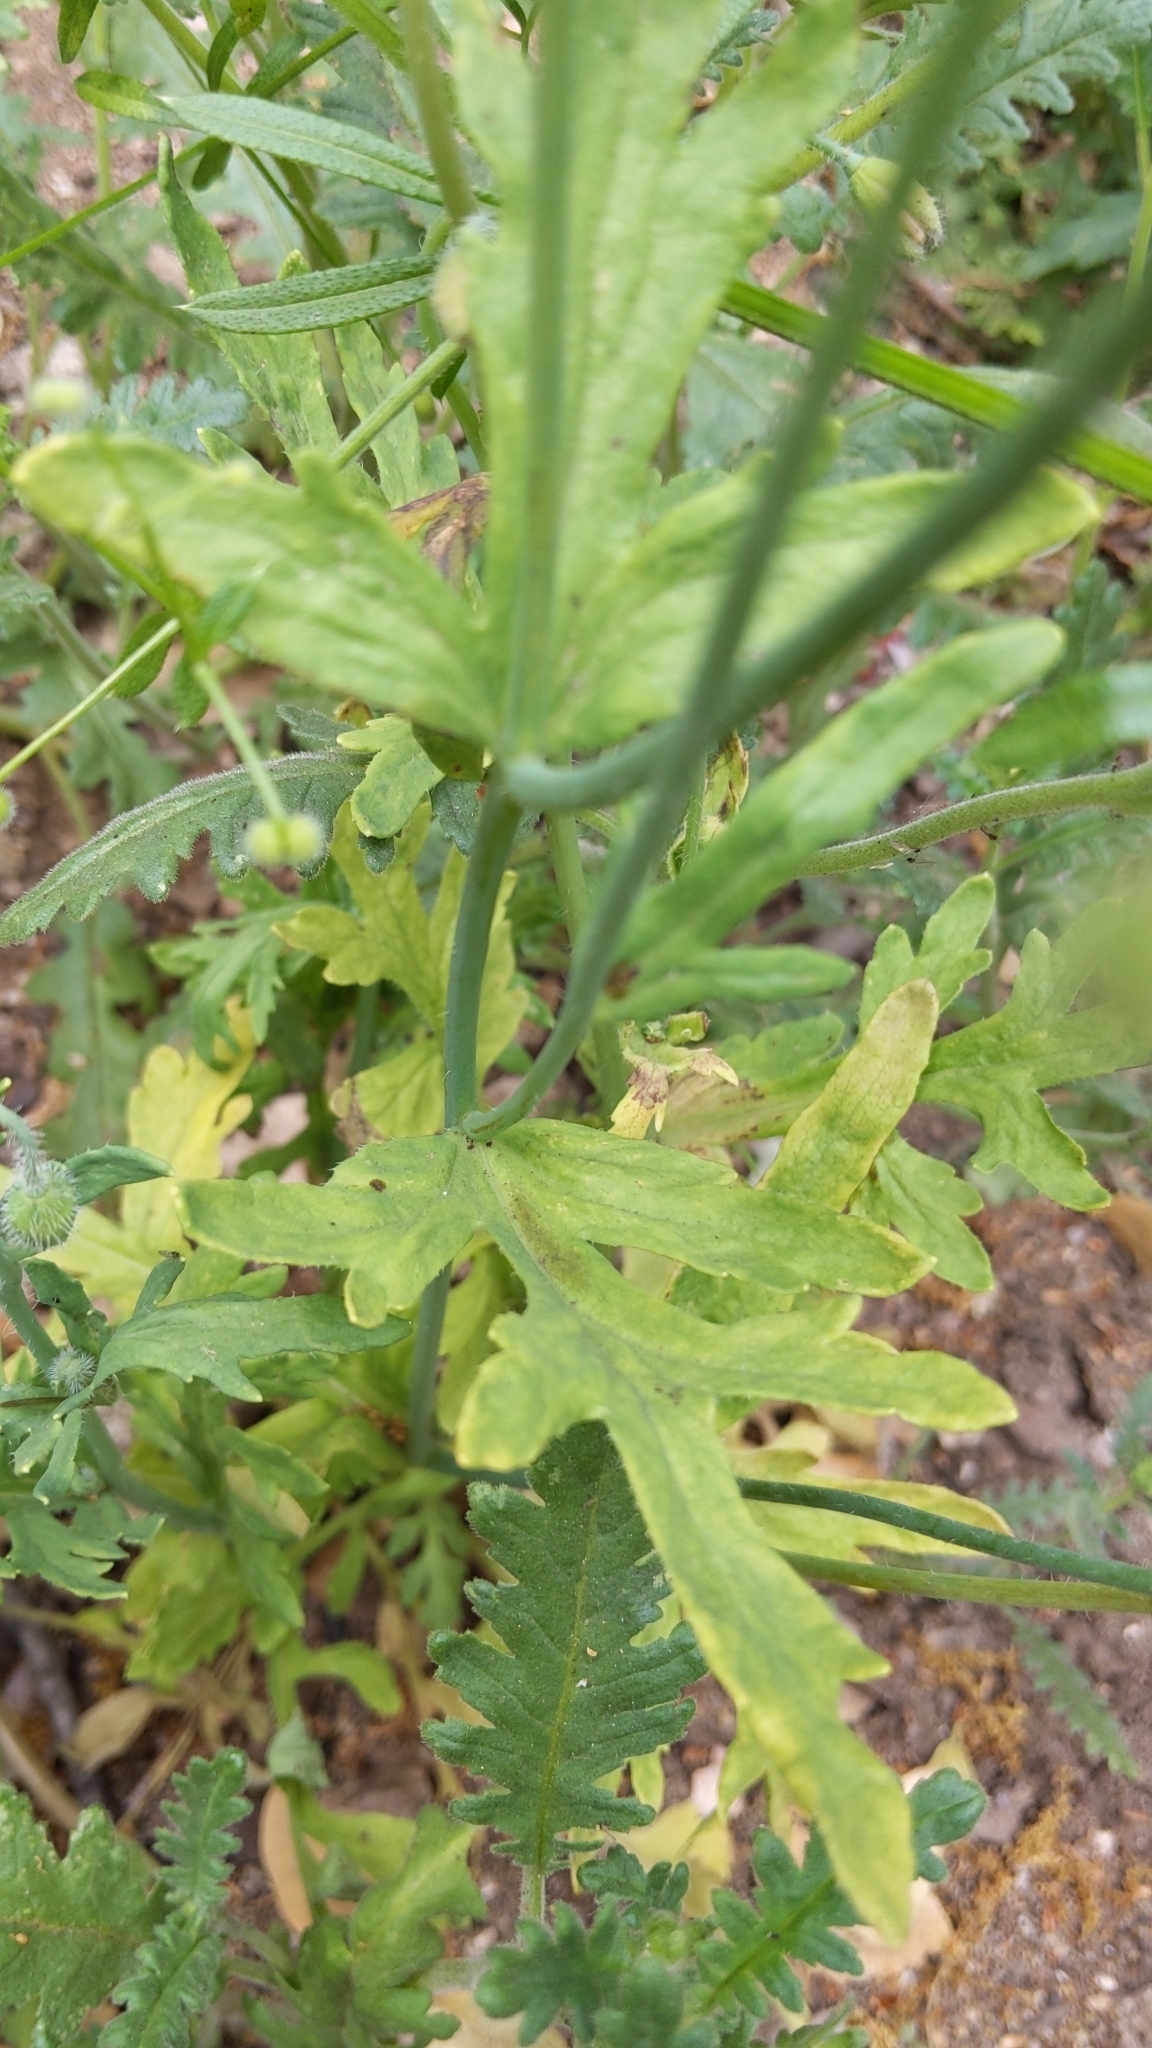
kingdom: Plantae
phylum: Tracheophyta
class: Magnoliopsida
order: Ranunculales
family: Papaveraceae
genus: Papaver
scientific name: Papaver californicum
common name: Fire poppy
